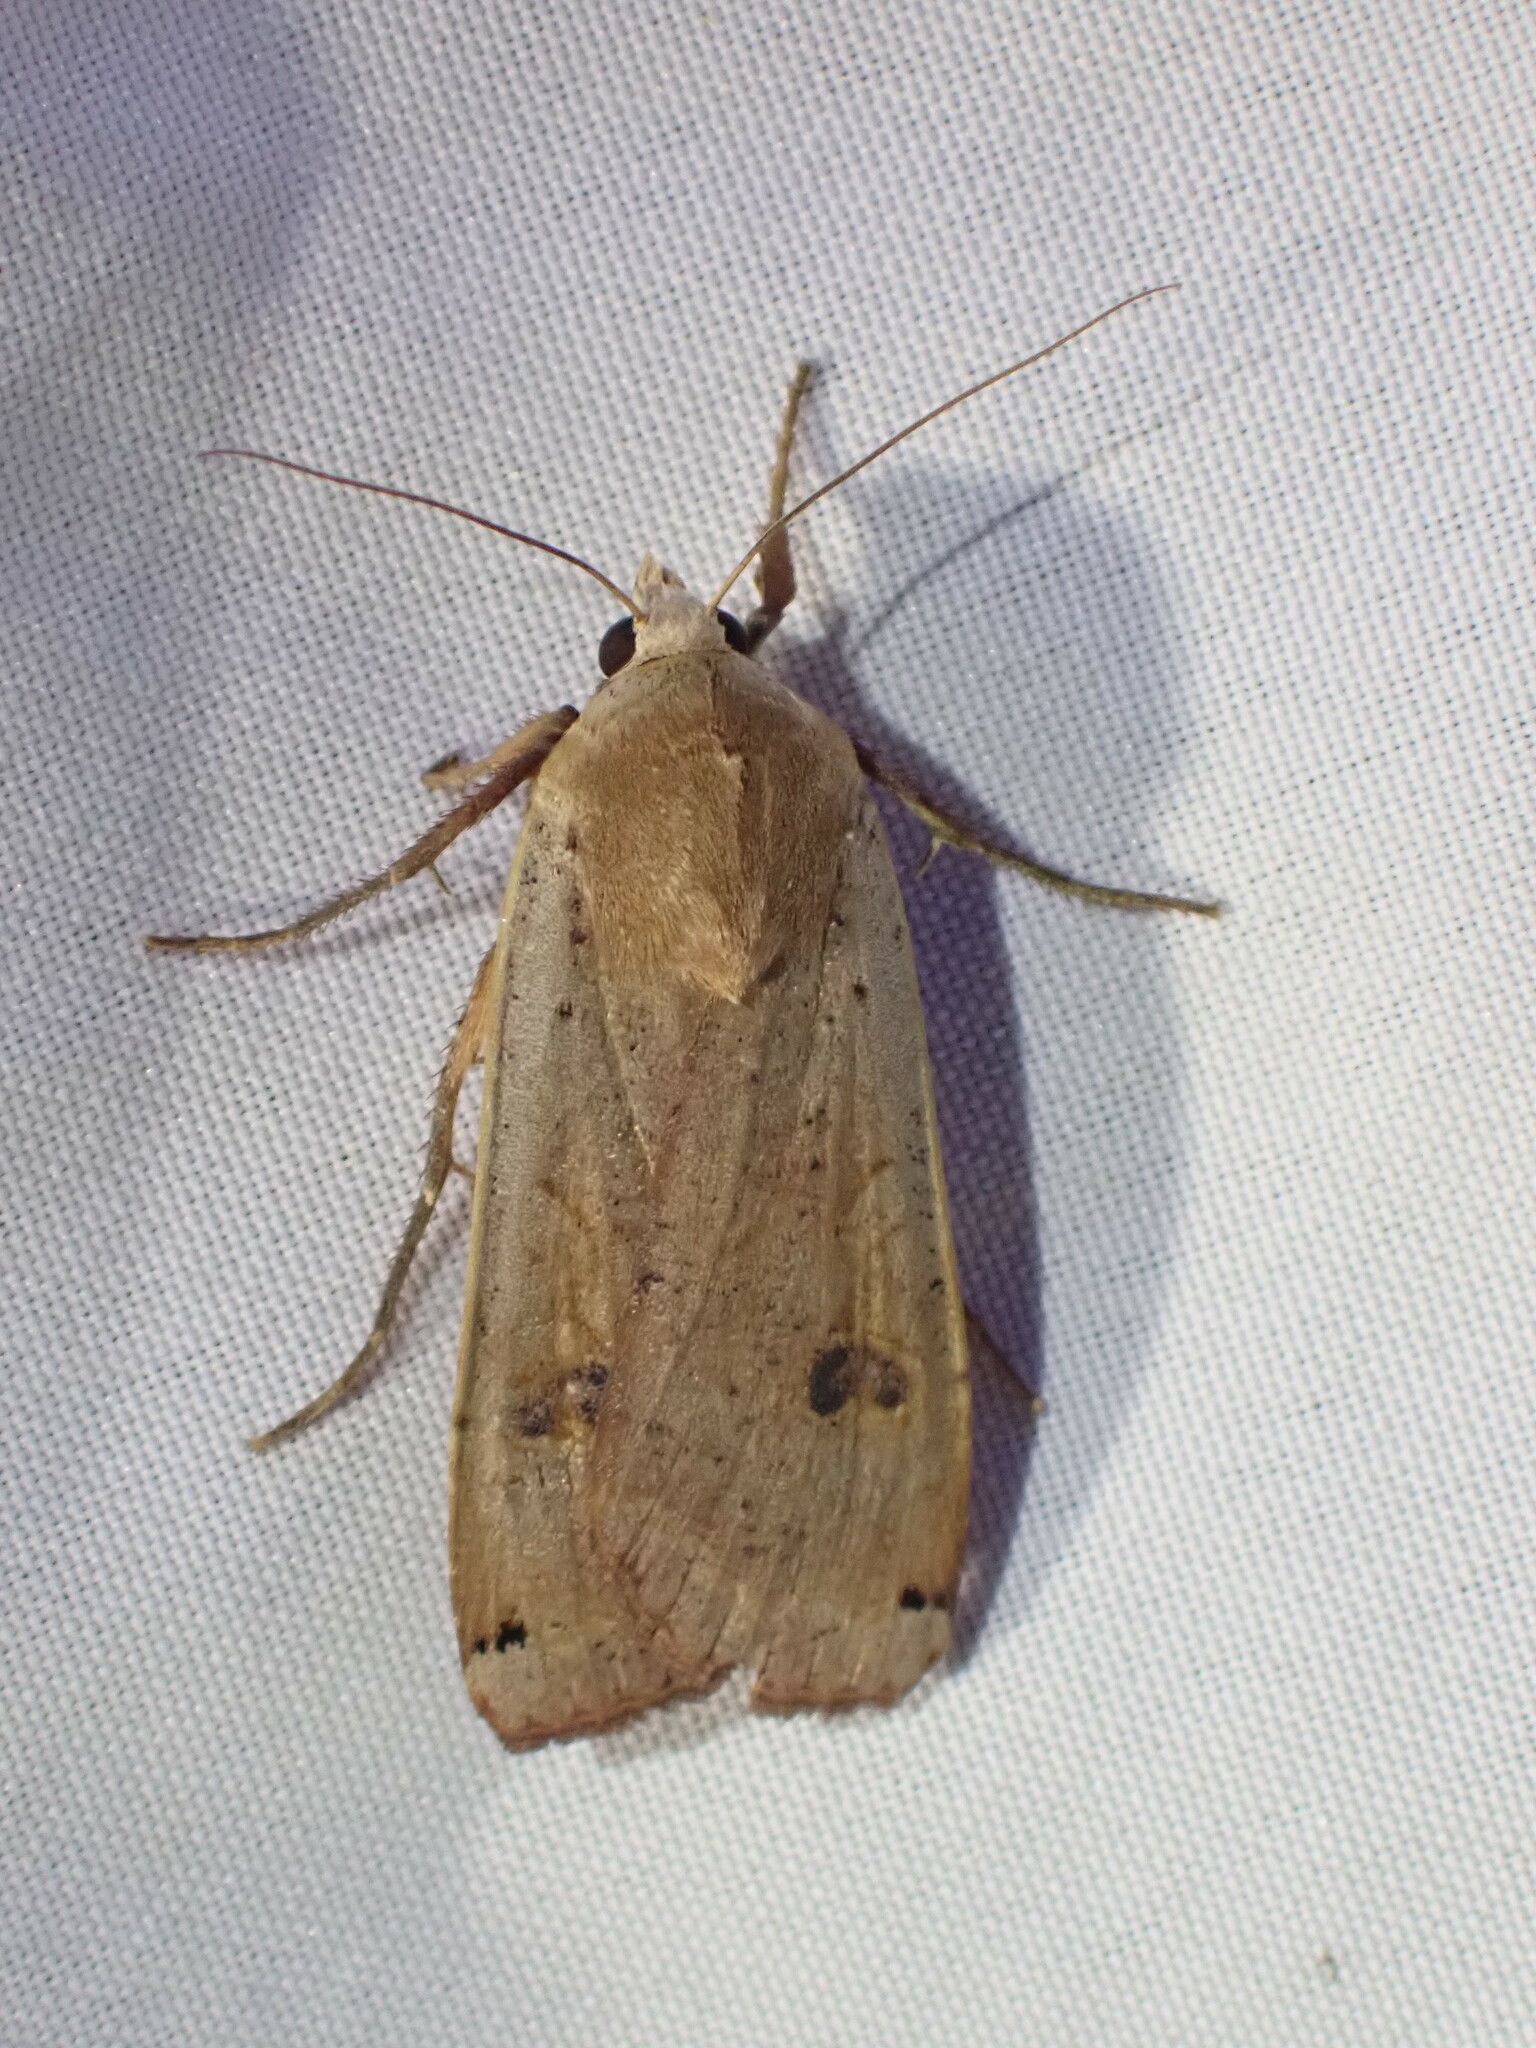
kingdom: Animalia
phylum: Arthropoda
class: Insecta
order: Lepidoptera
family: Noctuidae
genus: Noctua
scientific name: Noctua pronuba
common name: Large yellow underwing
